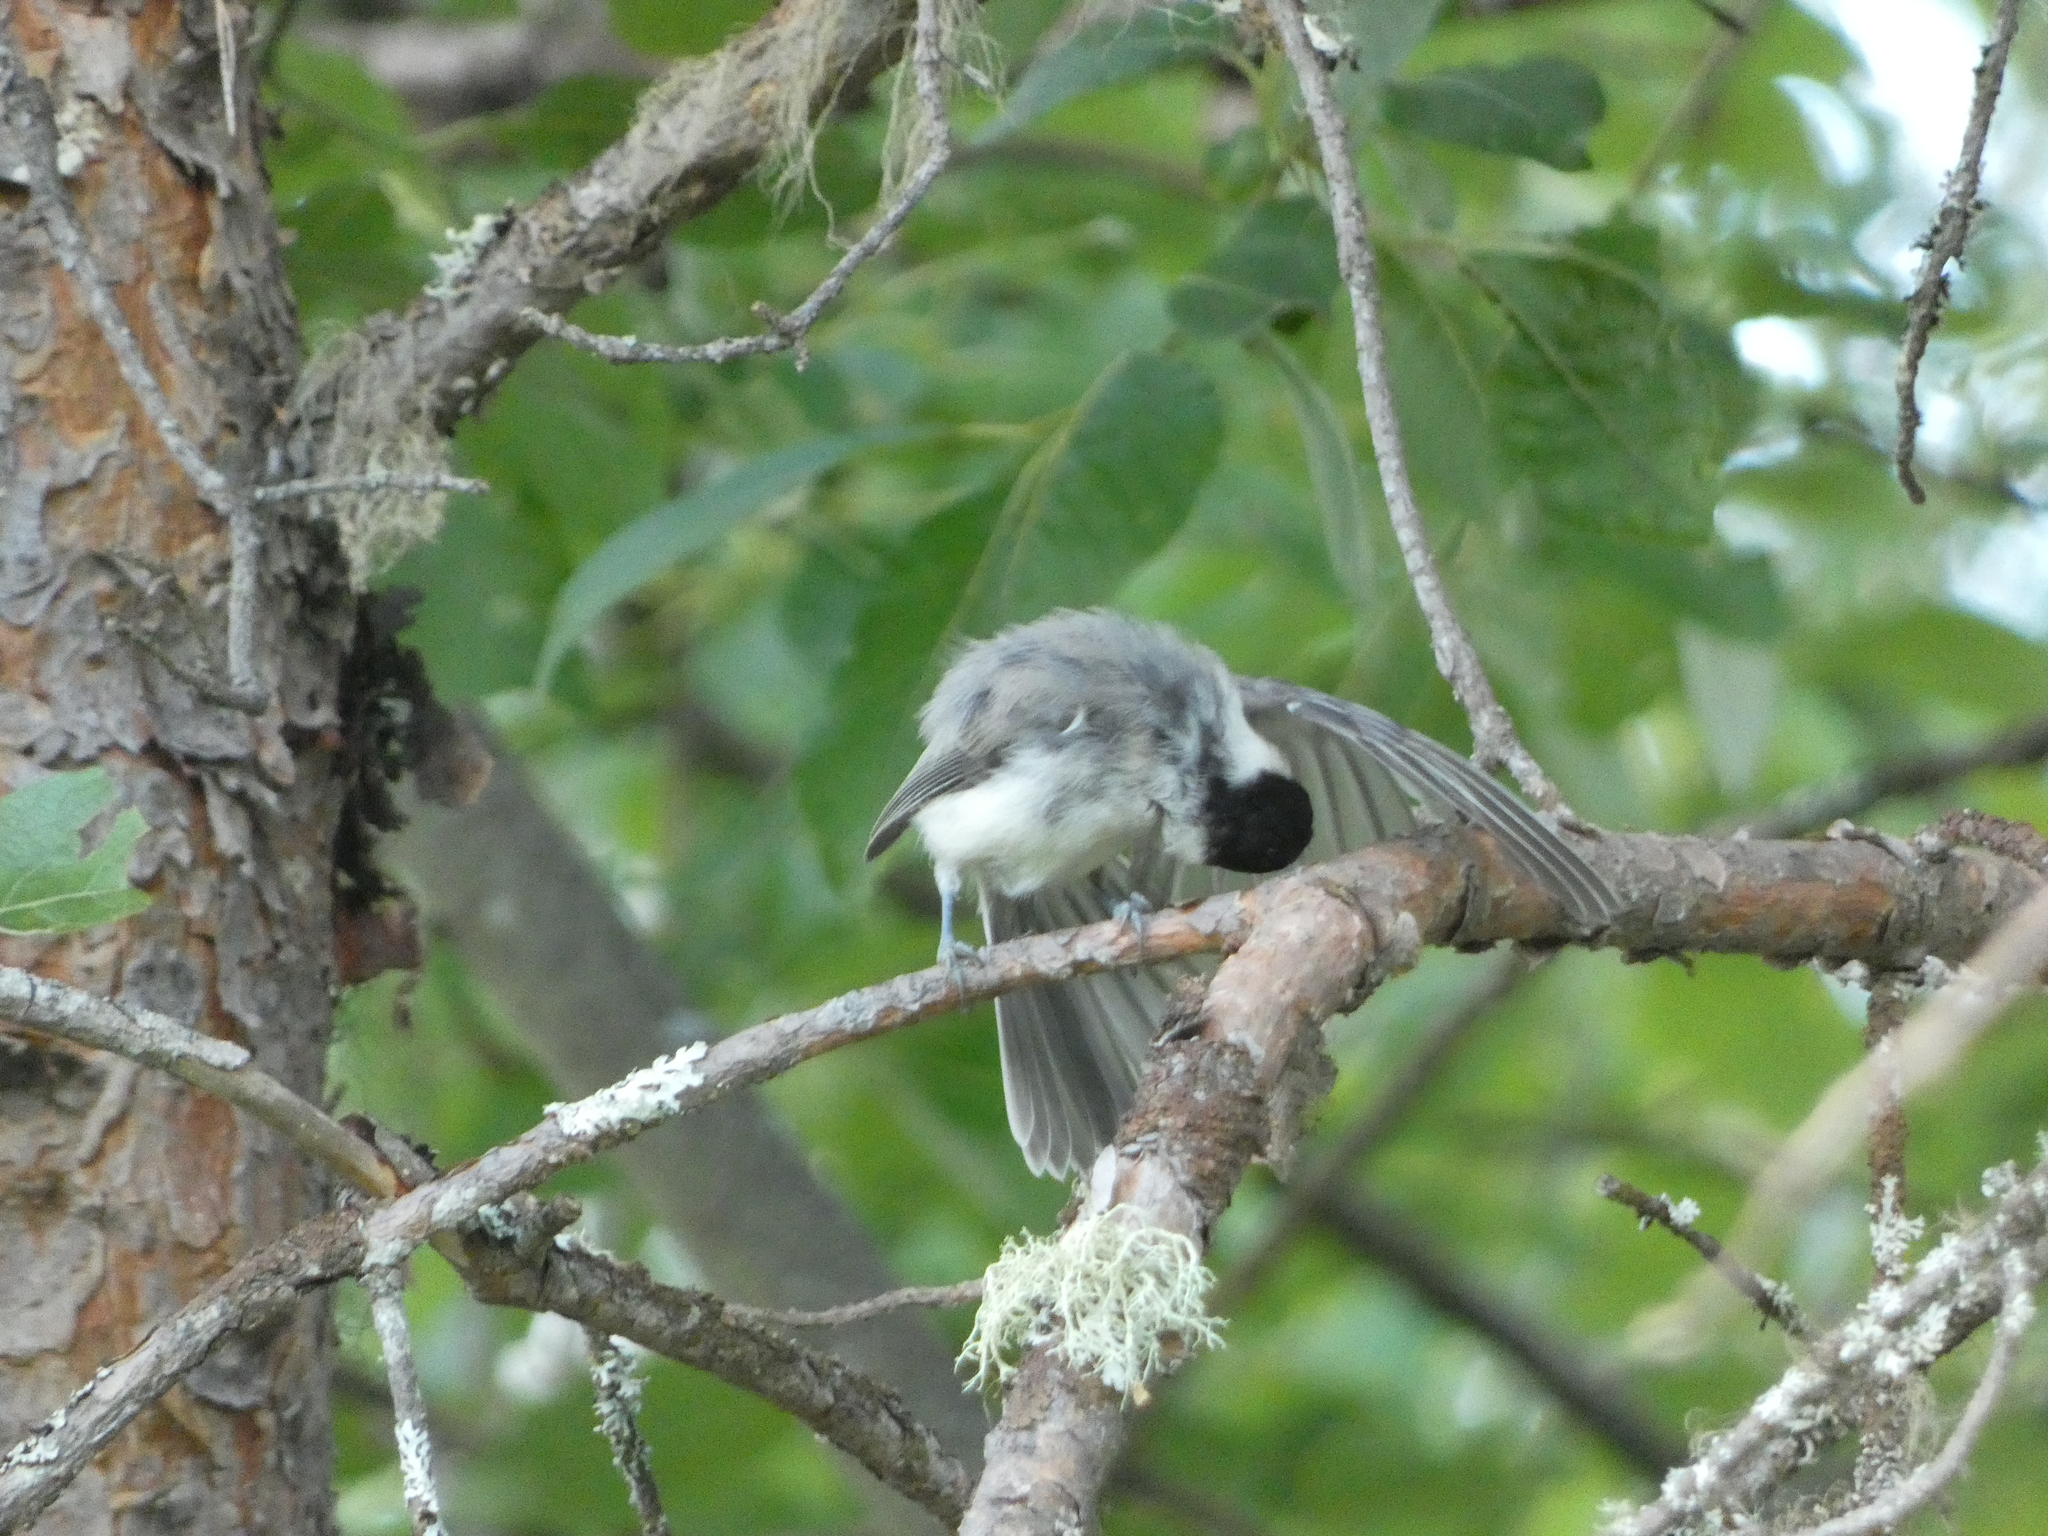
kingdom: Animalia
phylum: Chordata
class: Aves
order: Passeriformes
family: Paridae
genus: Poecile
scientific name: Poecile montanus
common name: Willow tit
